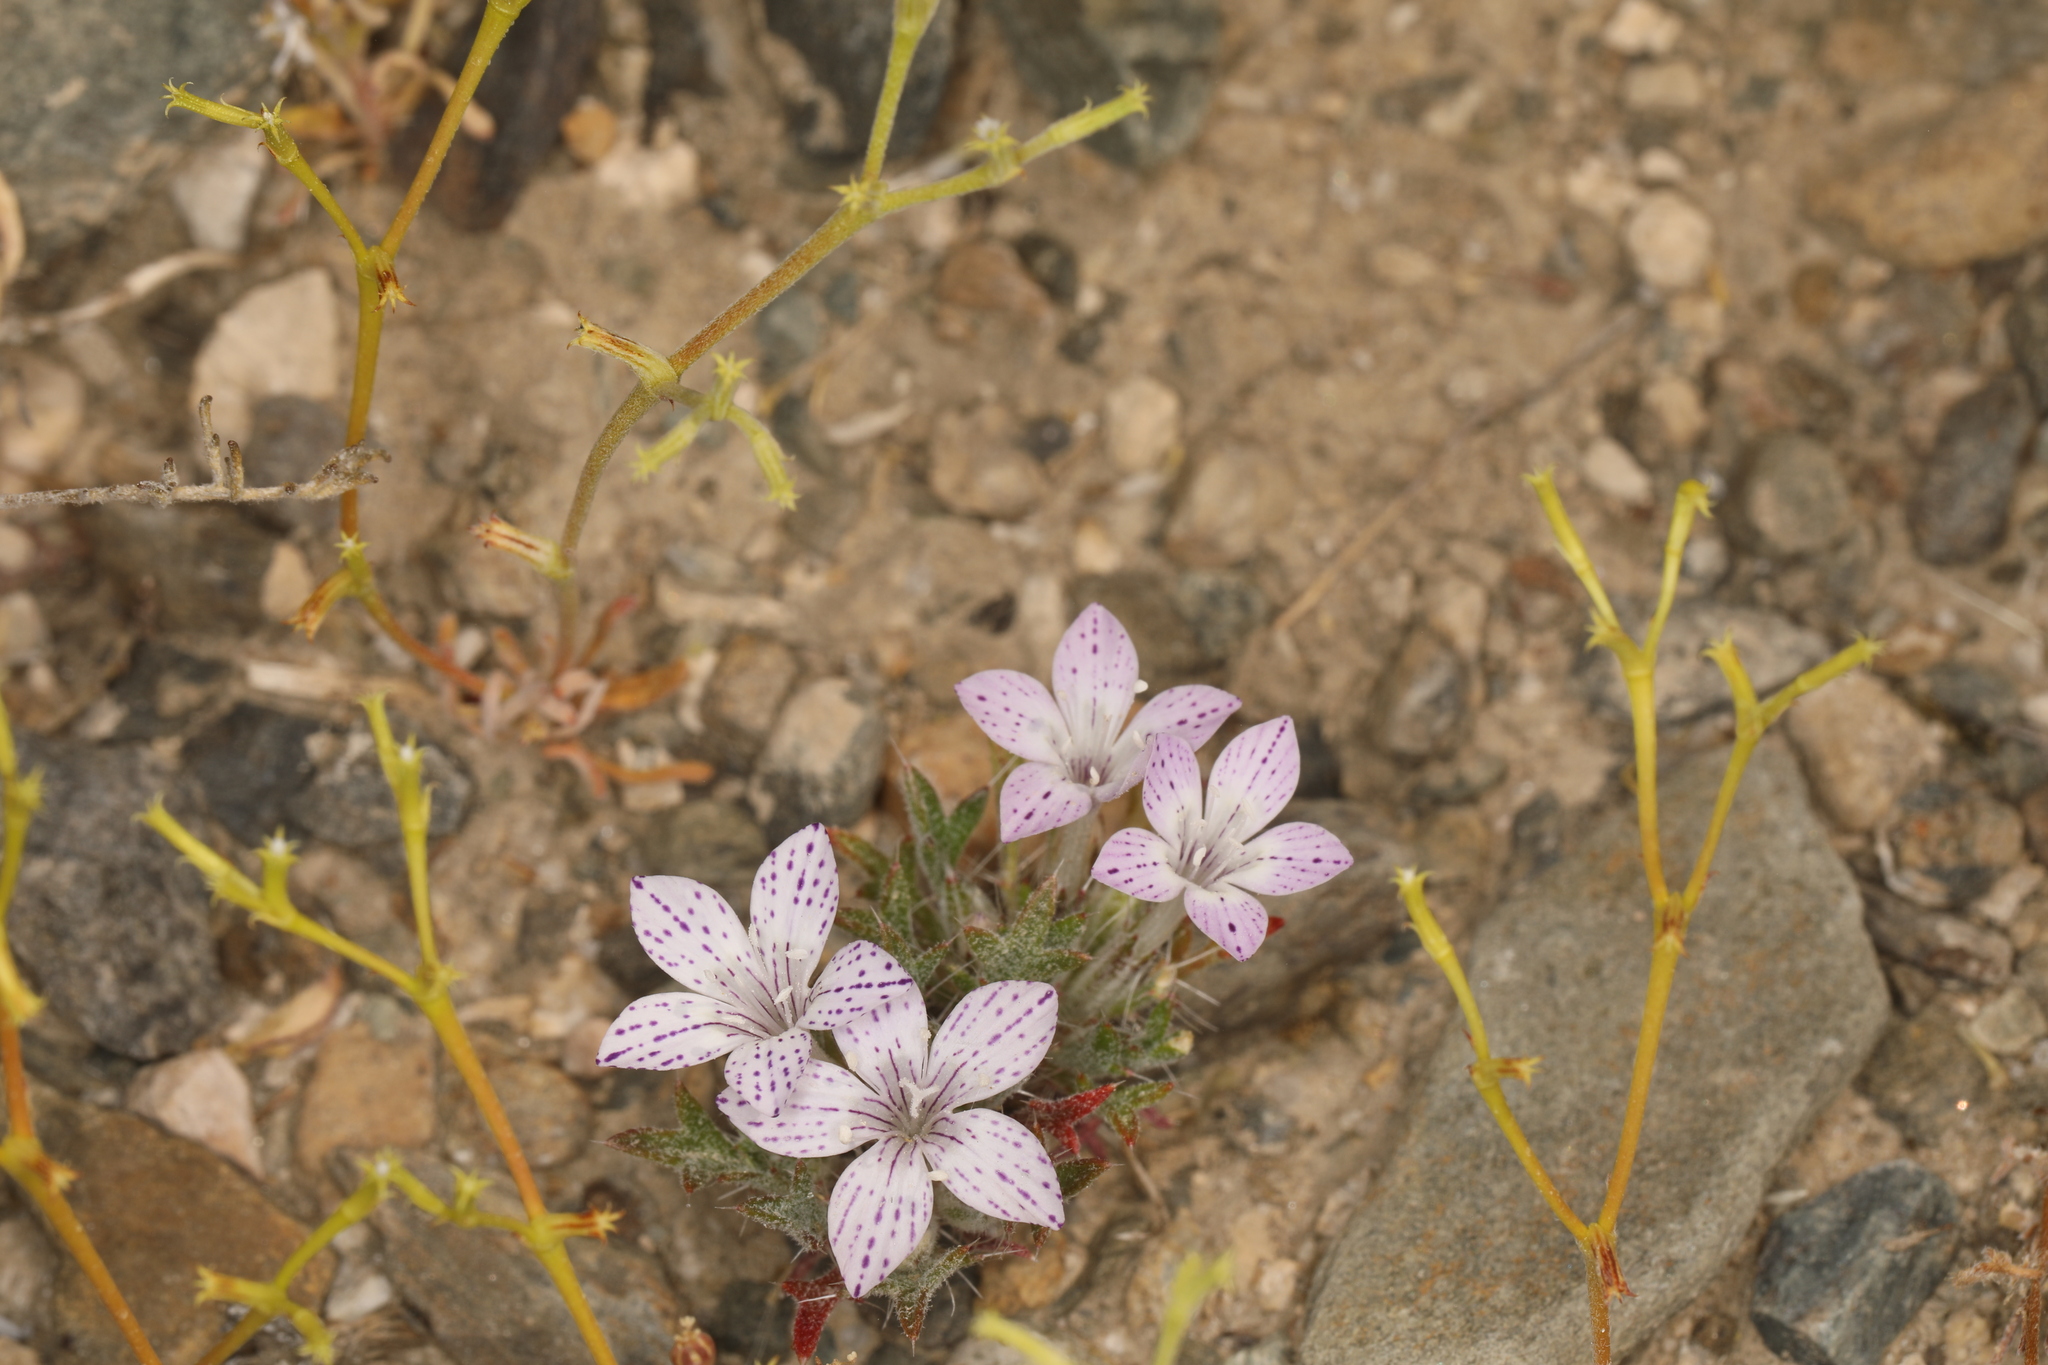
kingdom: Plantae
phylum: Tracheophyta
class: Magnoliopsida
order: Ericales
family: Polemoniaceae
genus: Langloisia
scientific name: Langloisia setosissima
